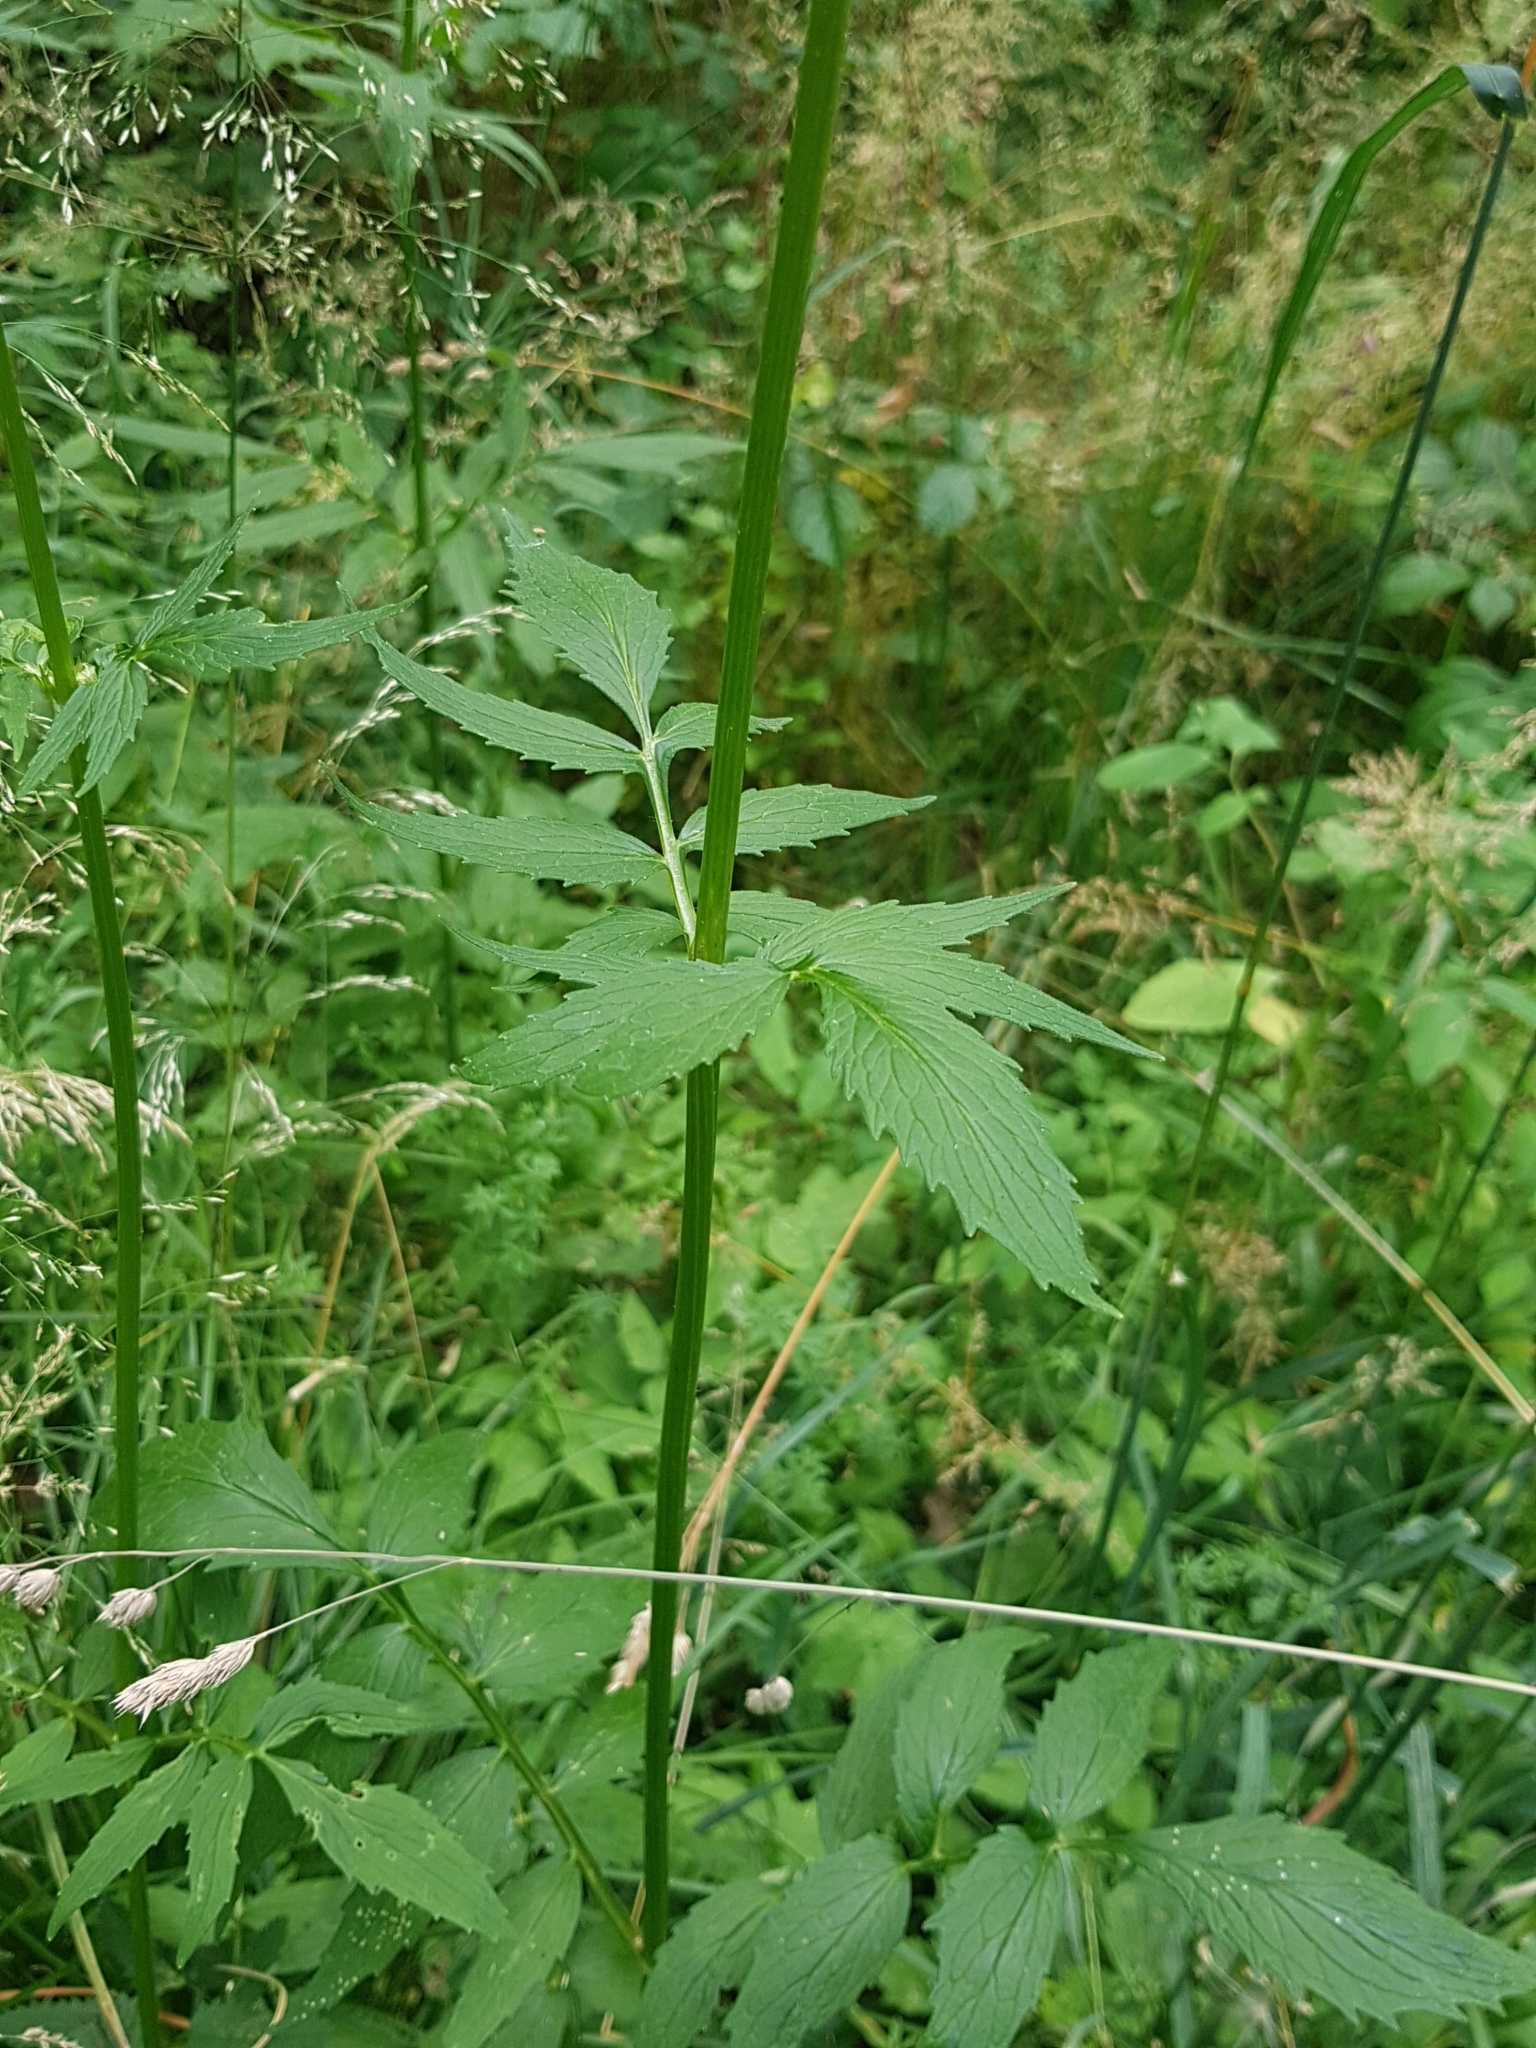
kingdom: Plantae
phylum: Tracheophyta
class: Magnoliopsida
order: Rosales
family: Rosaceae
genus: Sanguisorba
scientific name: Sanguisorba officinalis
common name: Great burnet
